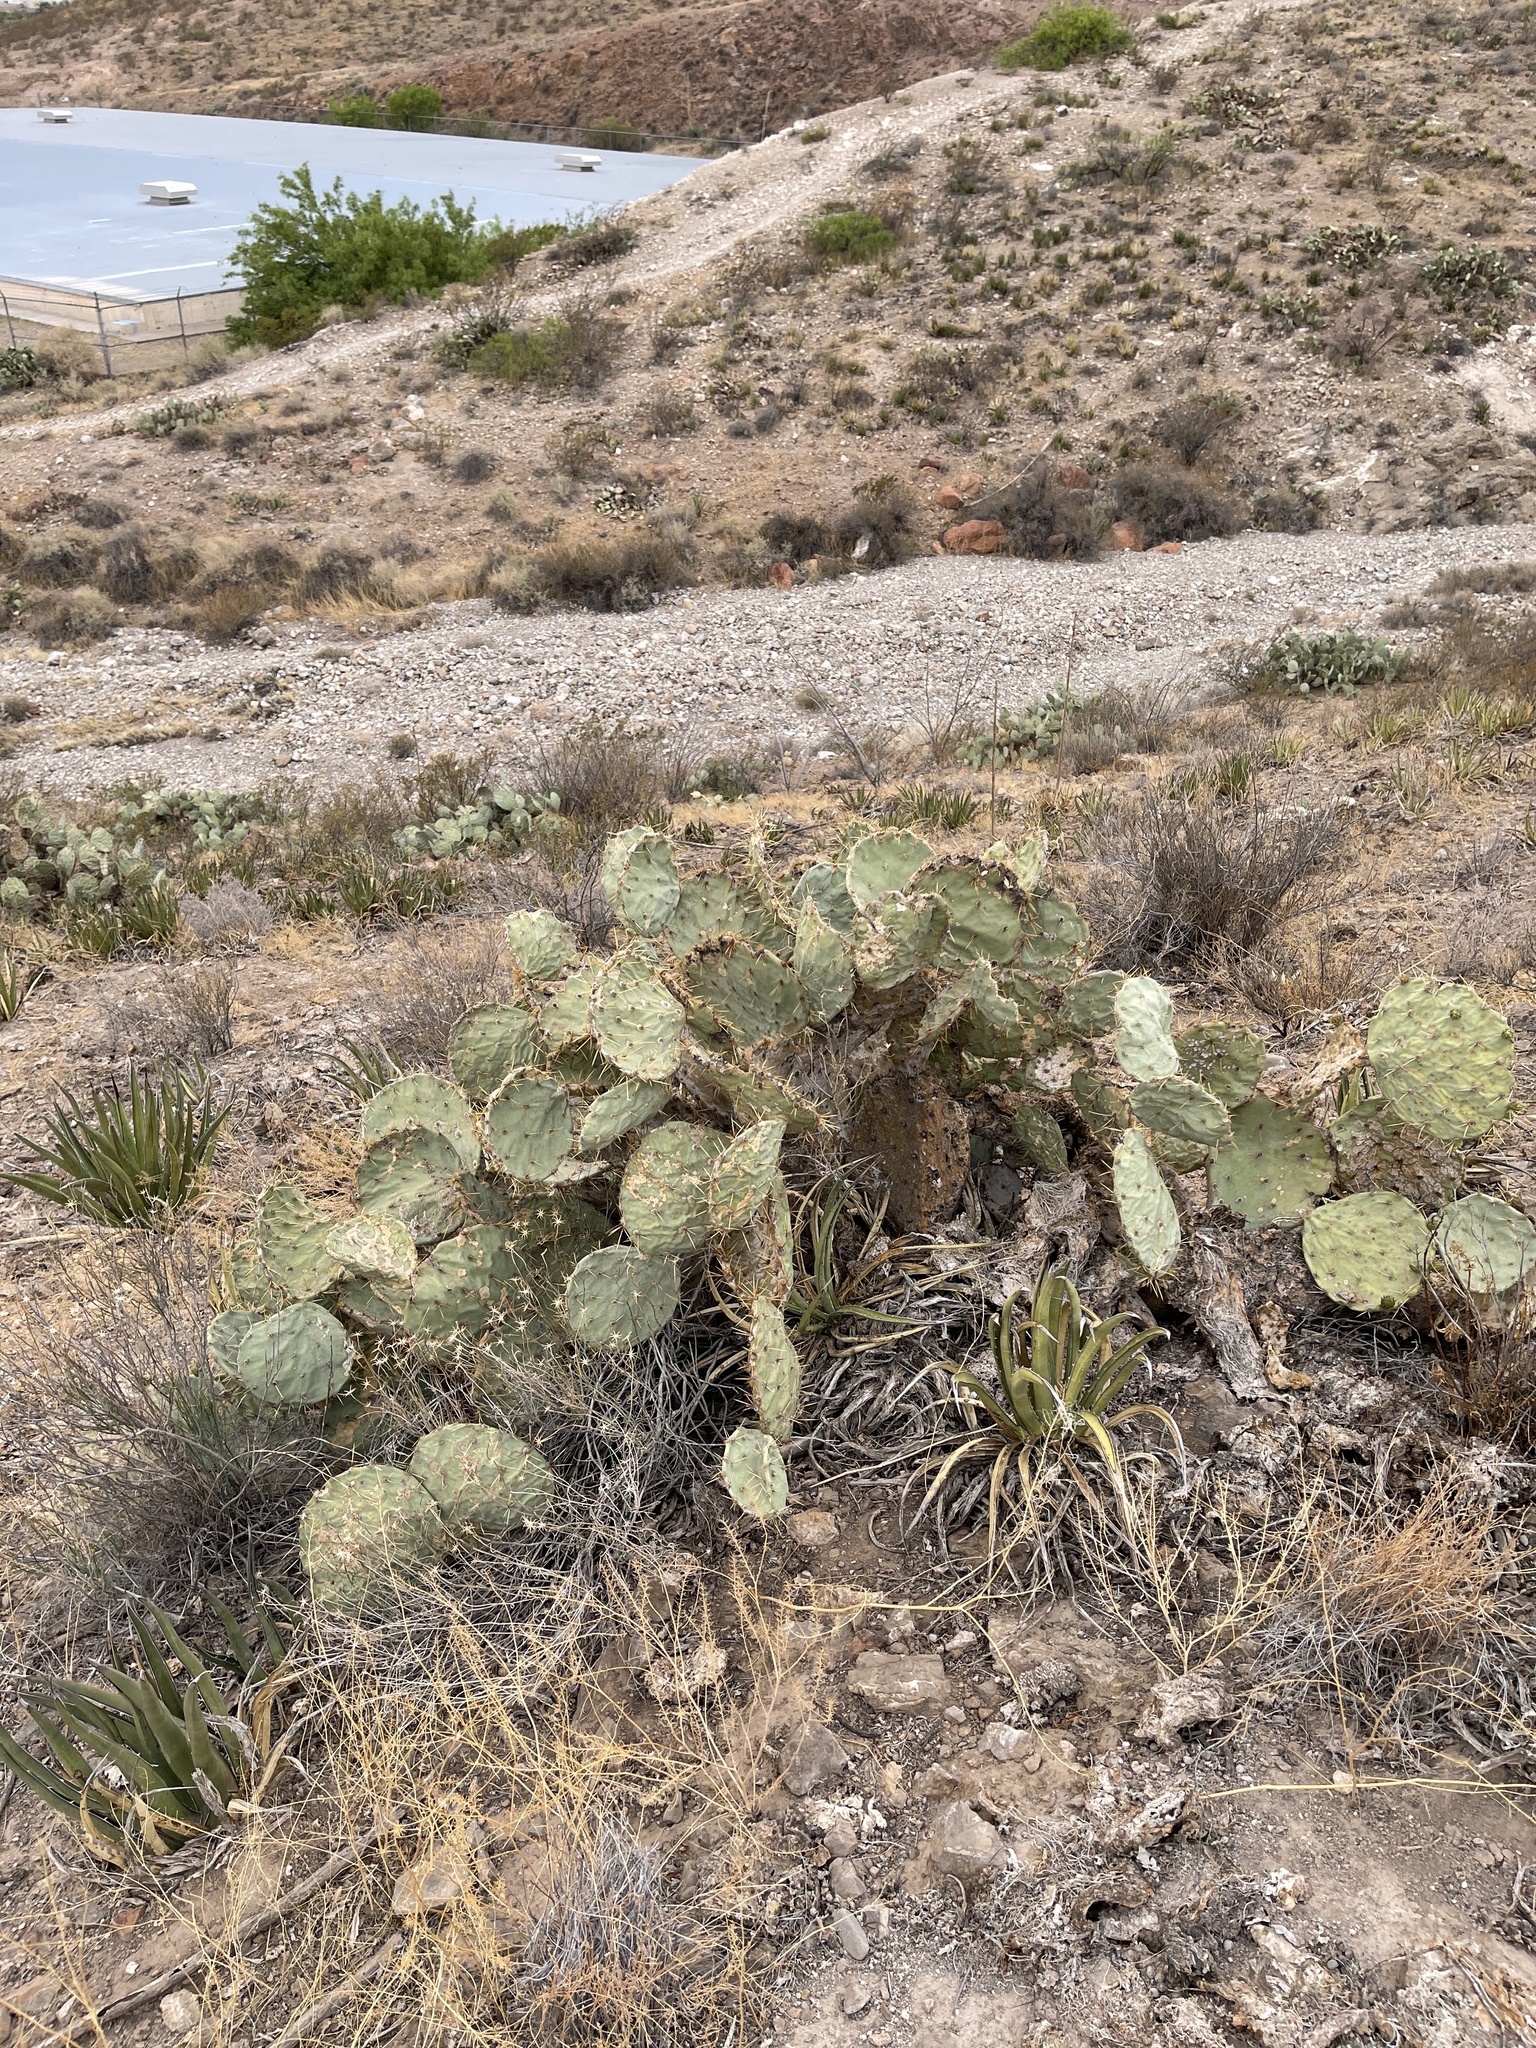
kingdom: Plantae
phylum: Tracheophyta
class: Magnoliopsida
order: Caryophyllales
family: Cactaceae
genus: Opuntia
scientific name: Opuntia engelmannii
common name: Cactus-apple
